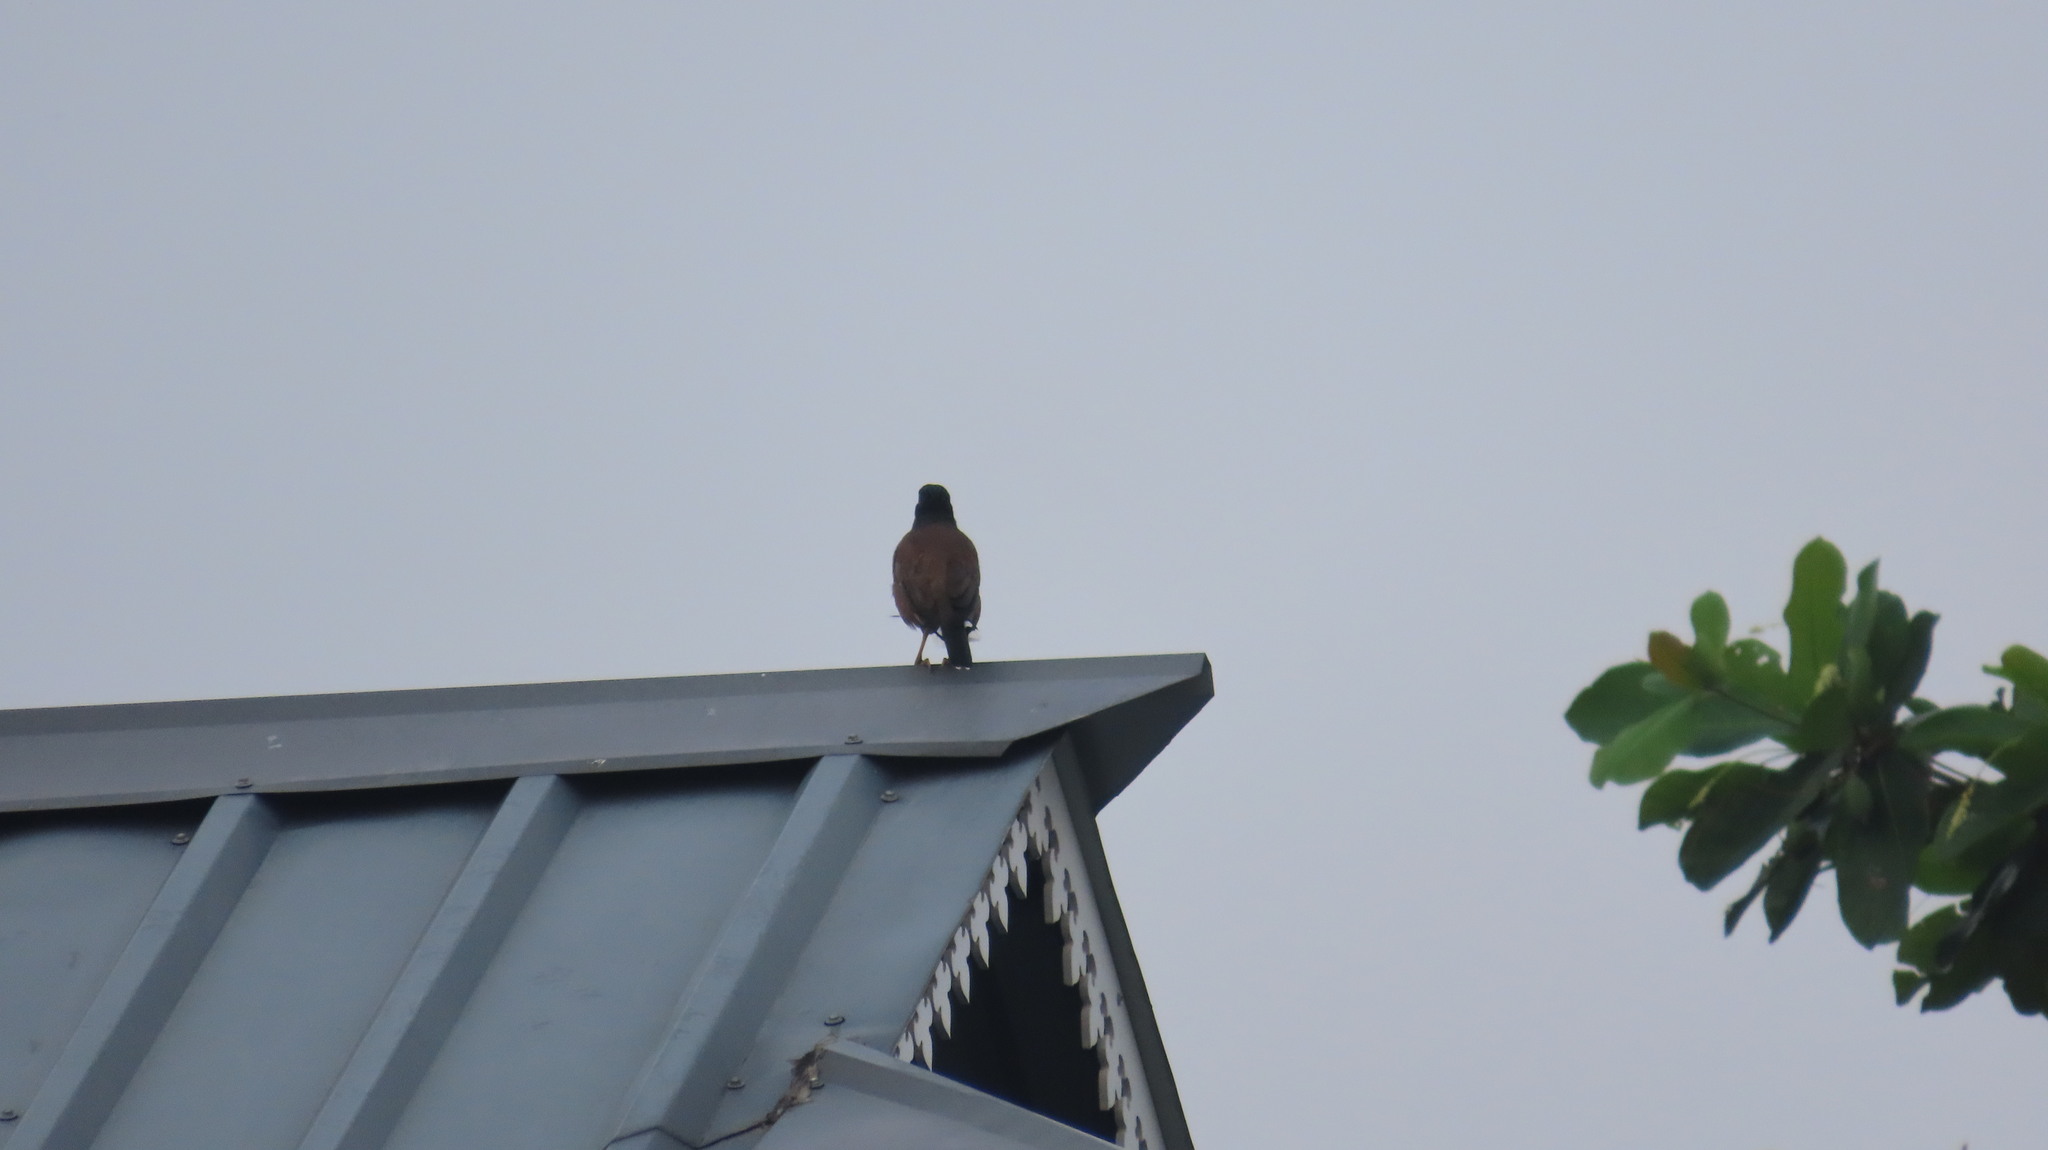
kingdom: Animalia
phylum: Chordata
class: Aves
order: Passeriformes
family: Sturnidae
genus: Acridotheres
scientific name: Acridotheres tristis
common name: Common myna
